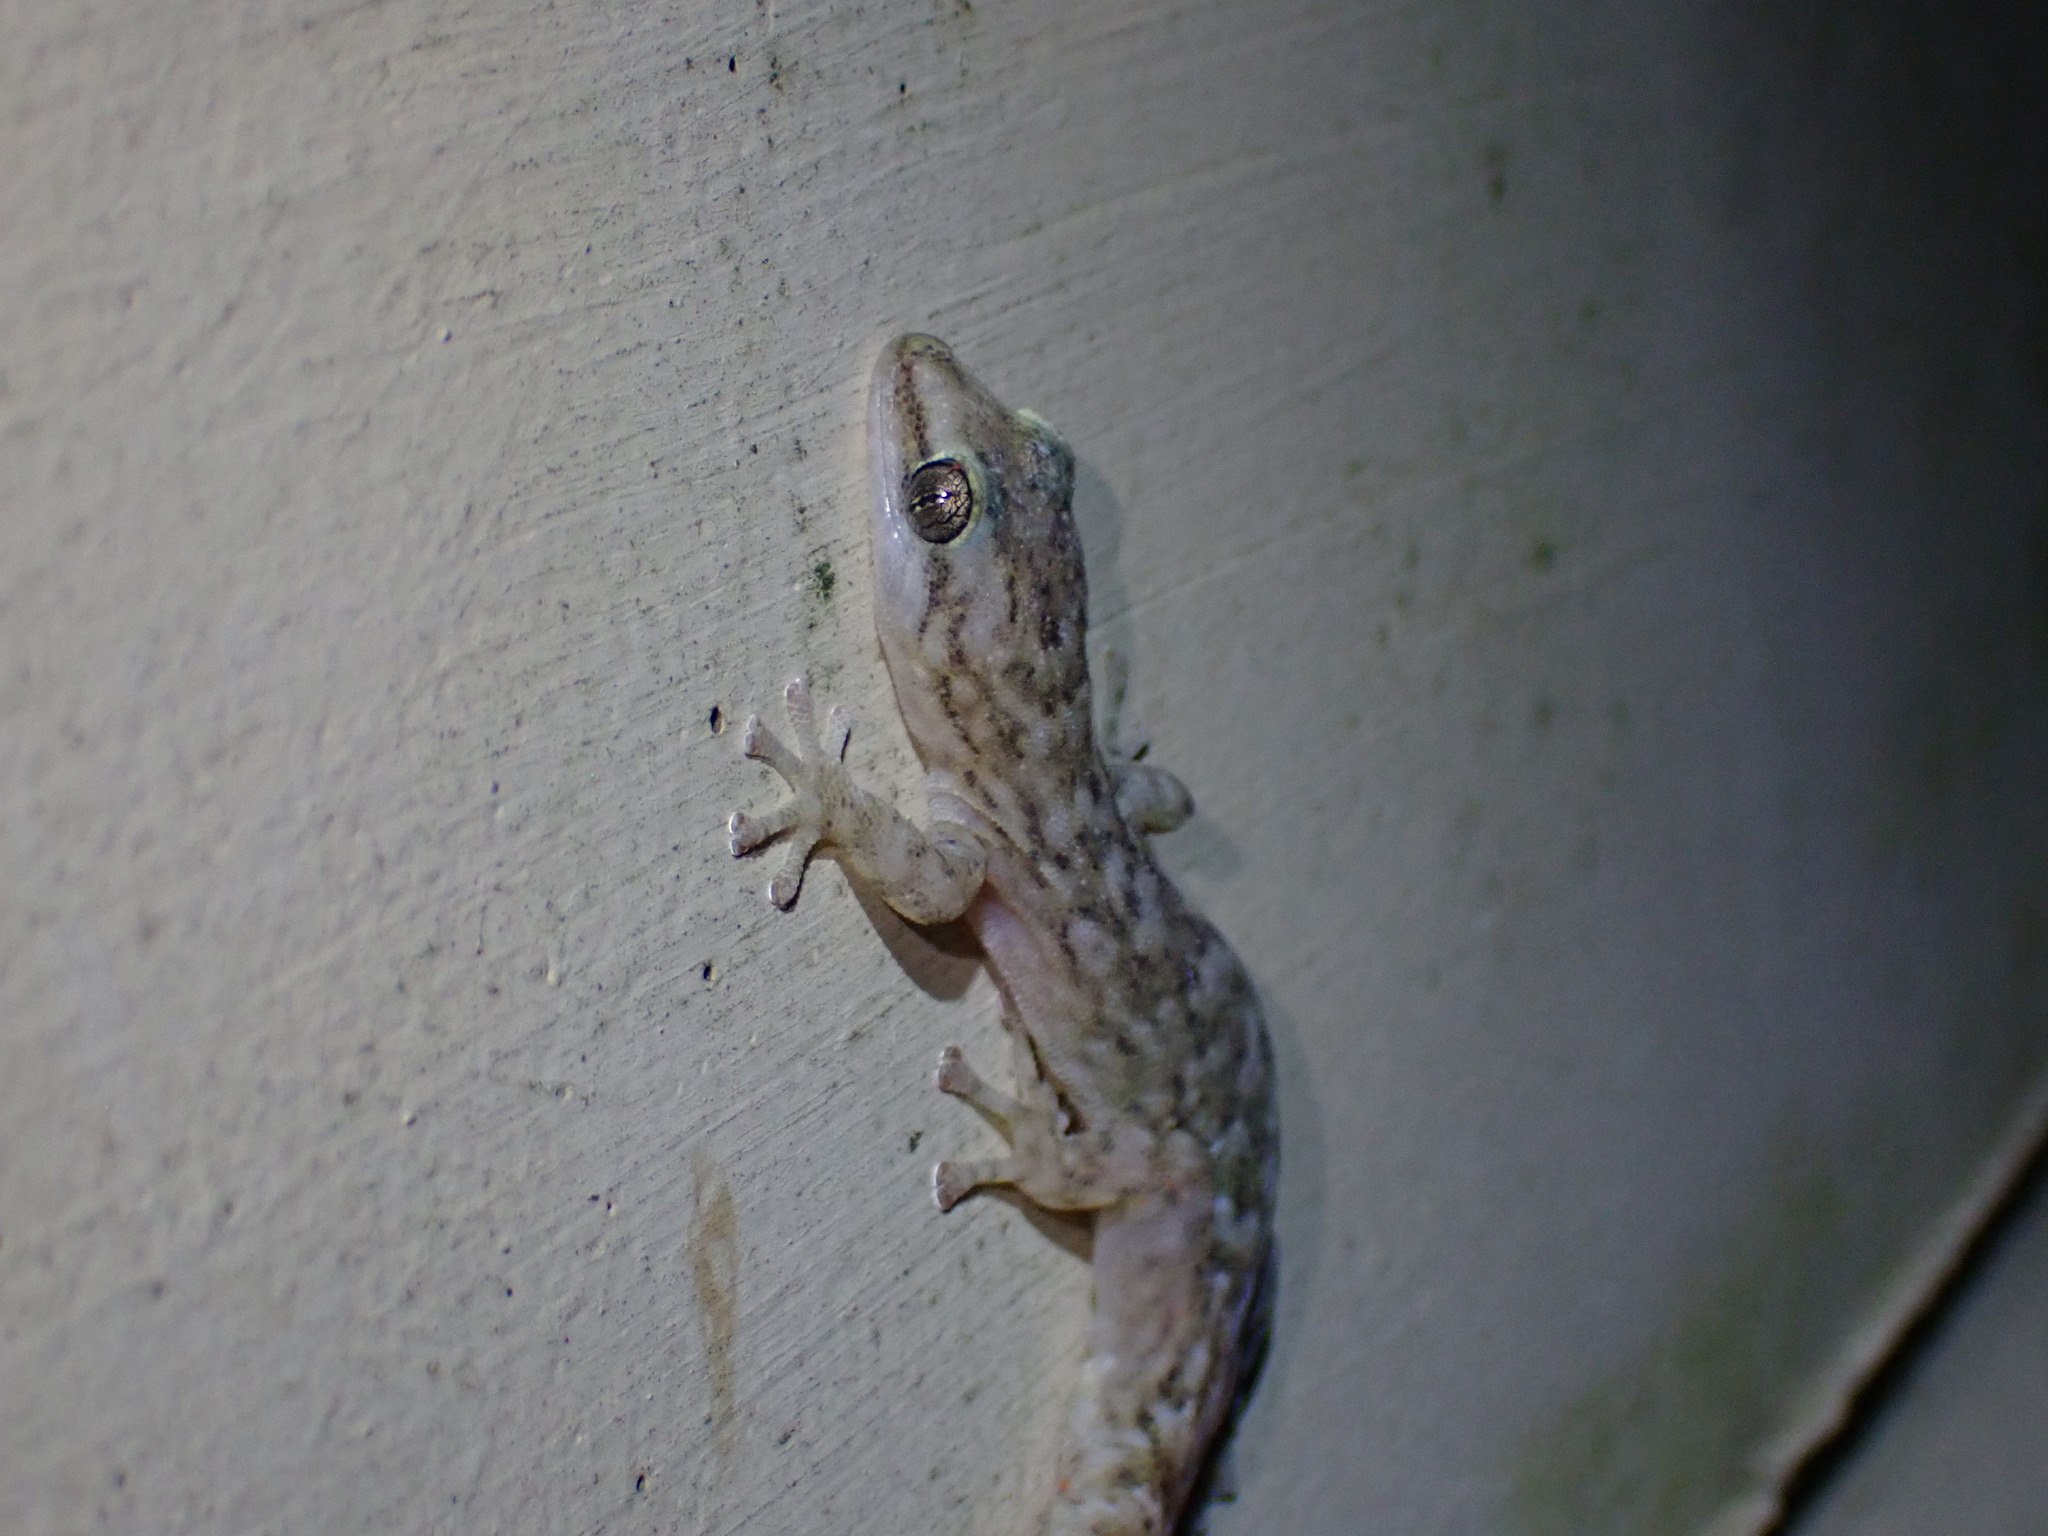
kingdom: Animalia
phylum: Chordata
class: Squamata
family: Gekkonidae
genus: Afrogecko
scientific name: Afrogecko porphyreus
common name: Marbled leaf-toed gecko
